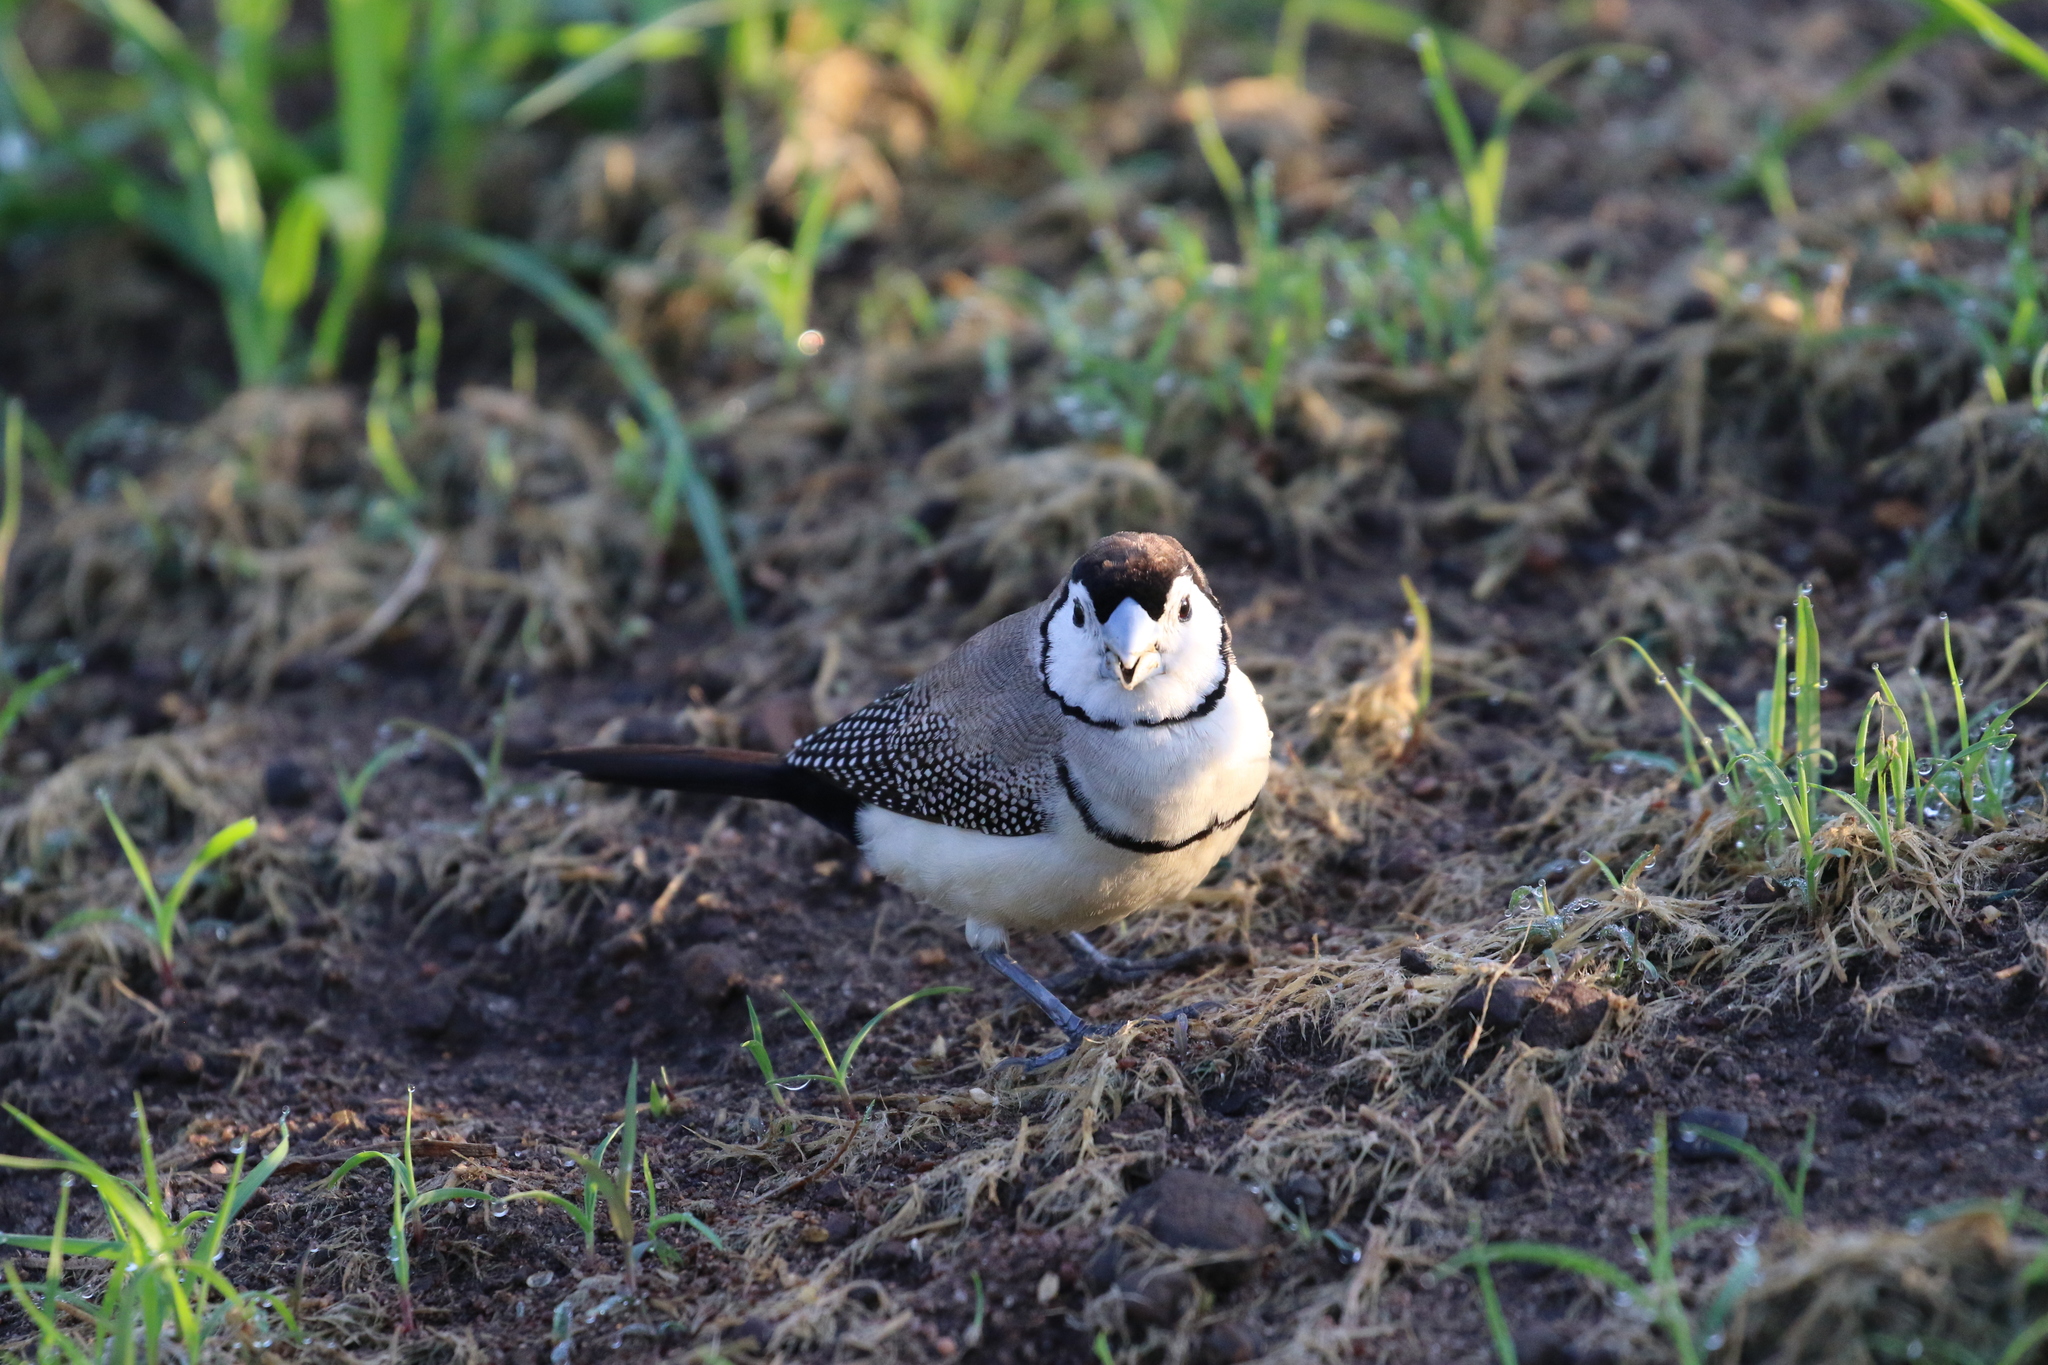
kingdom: Animalia
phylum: Chordata
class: Aves
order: Passeriformes
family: Estrildidae
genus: Taeniopygia
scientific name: Taeniopygia bichenovii
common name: Double-barred finch
